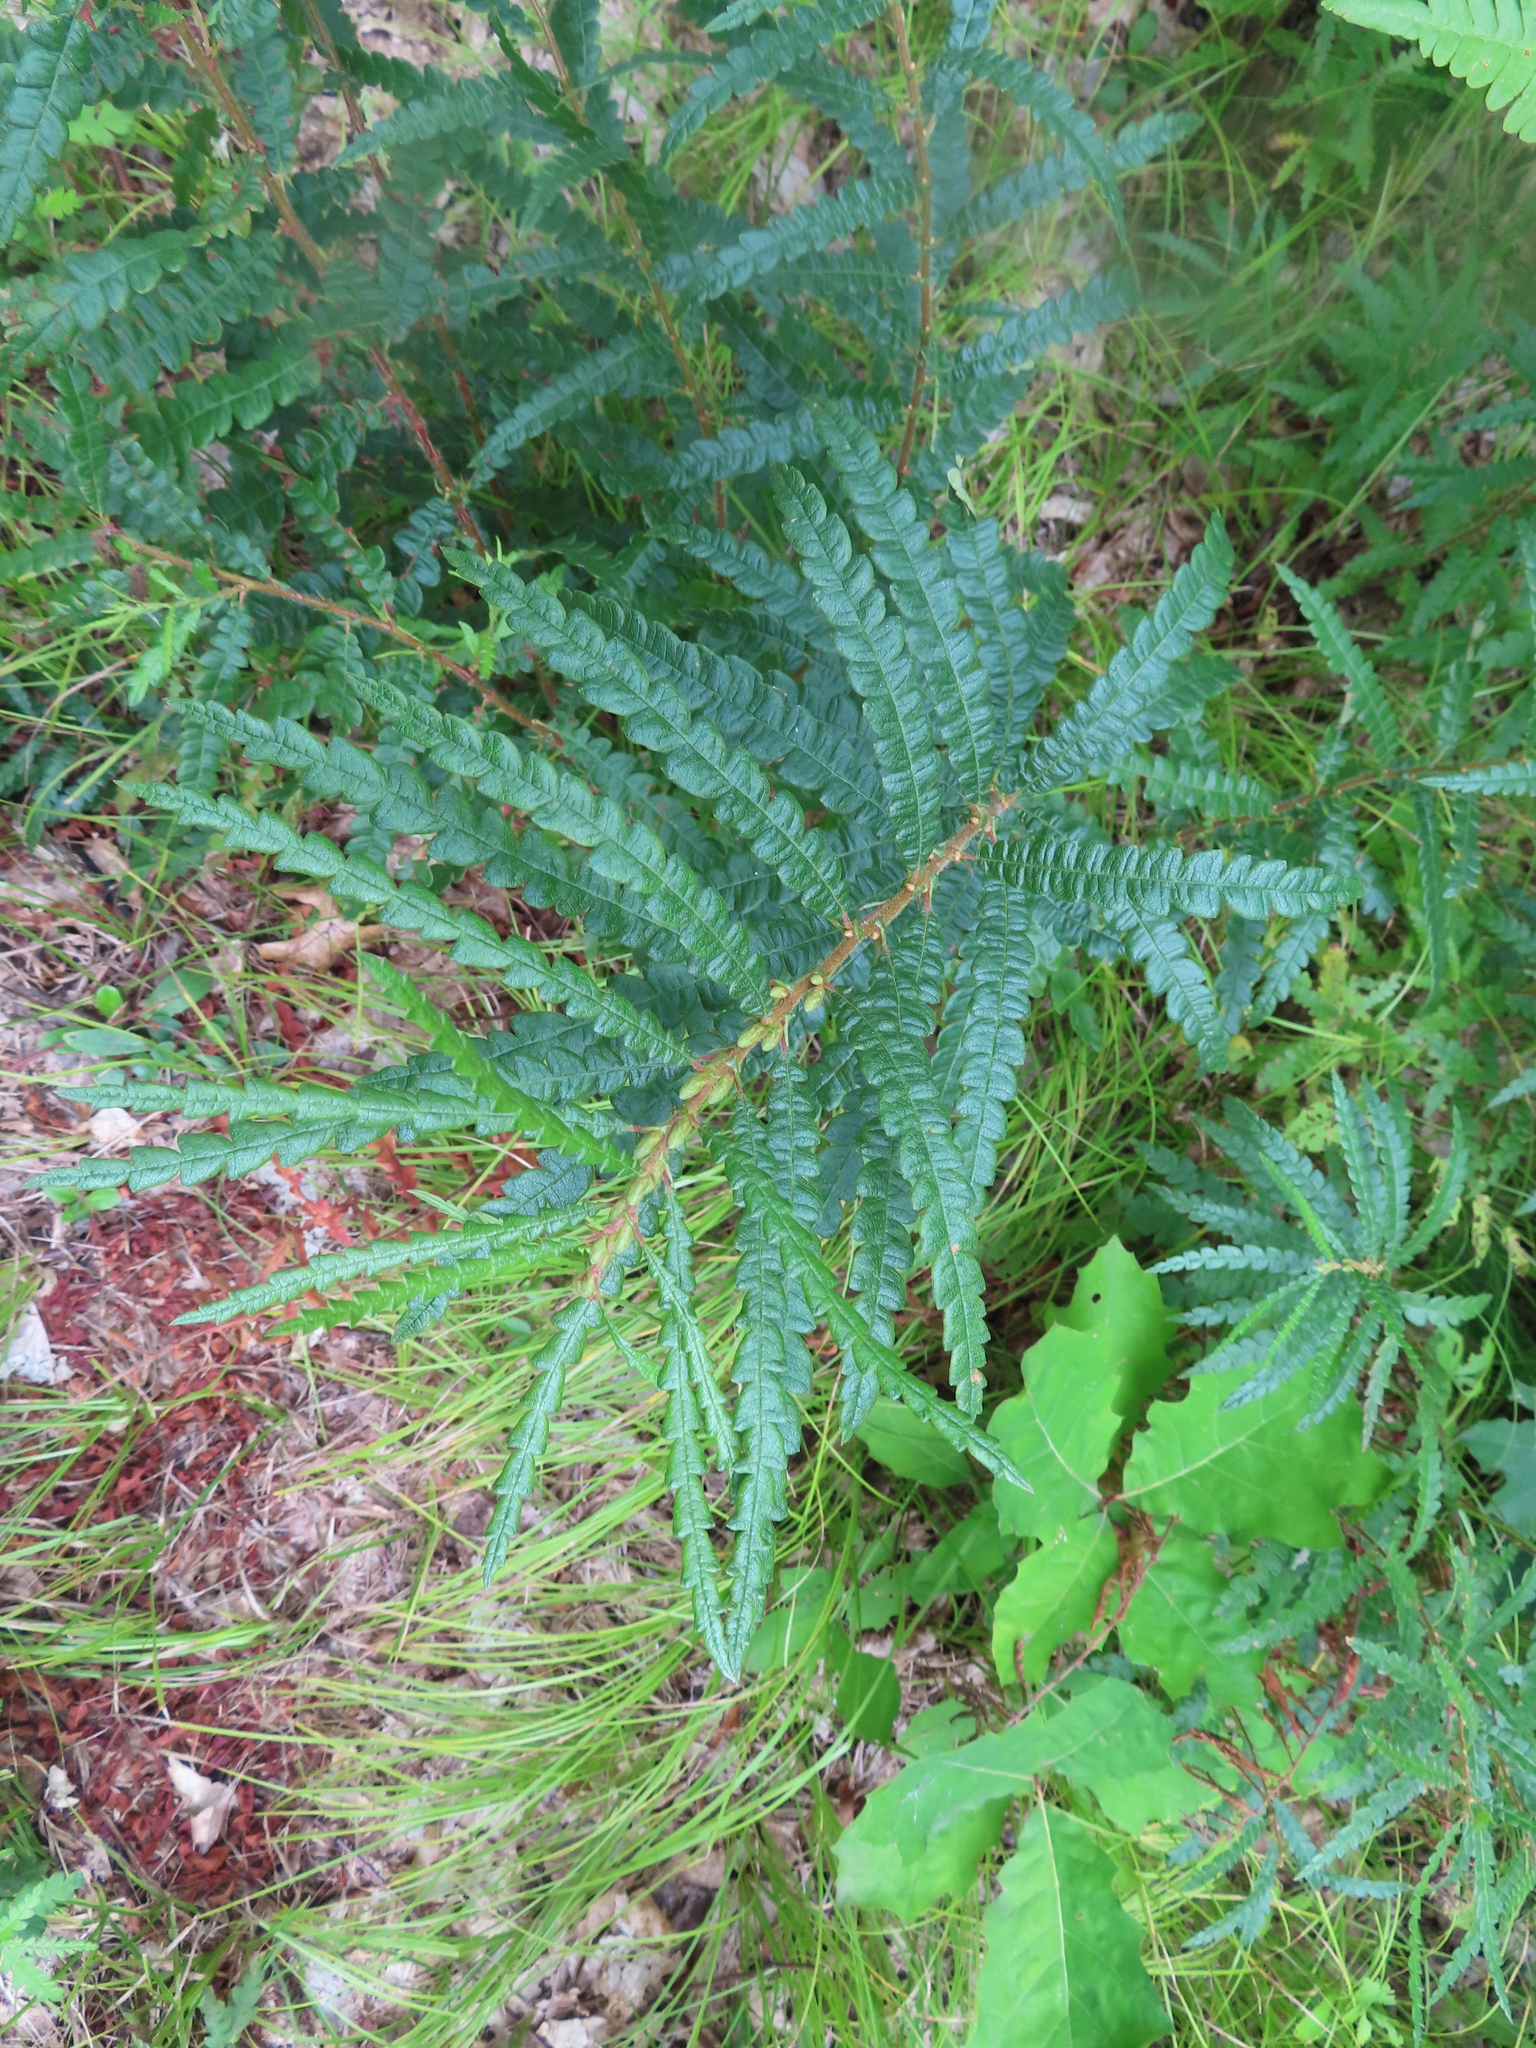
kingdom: Plantae
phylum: Tracheophyta
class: Magnoliopsida
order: Fagales
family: Myricaceae
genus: Comptonia
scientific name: Comptonia peregrina
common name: Sweet-fern
